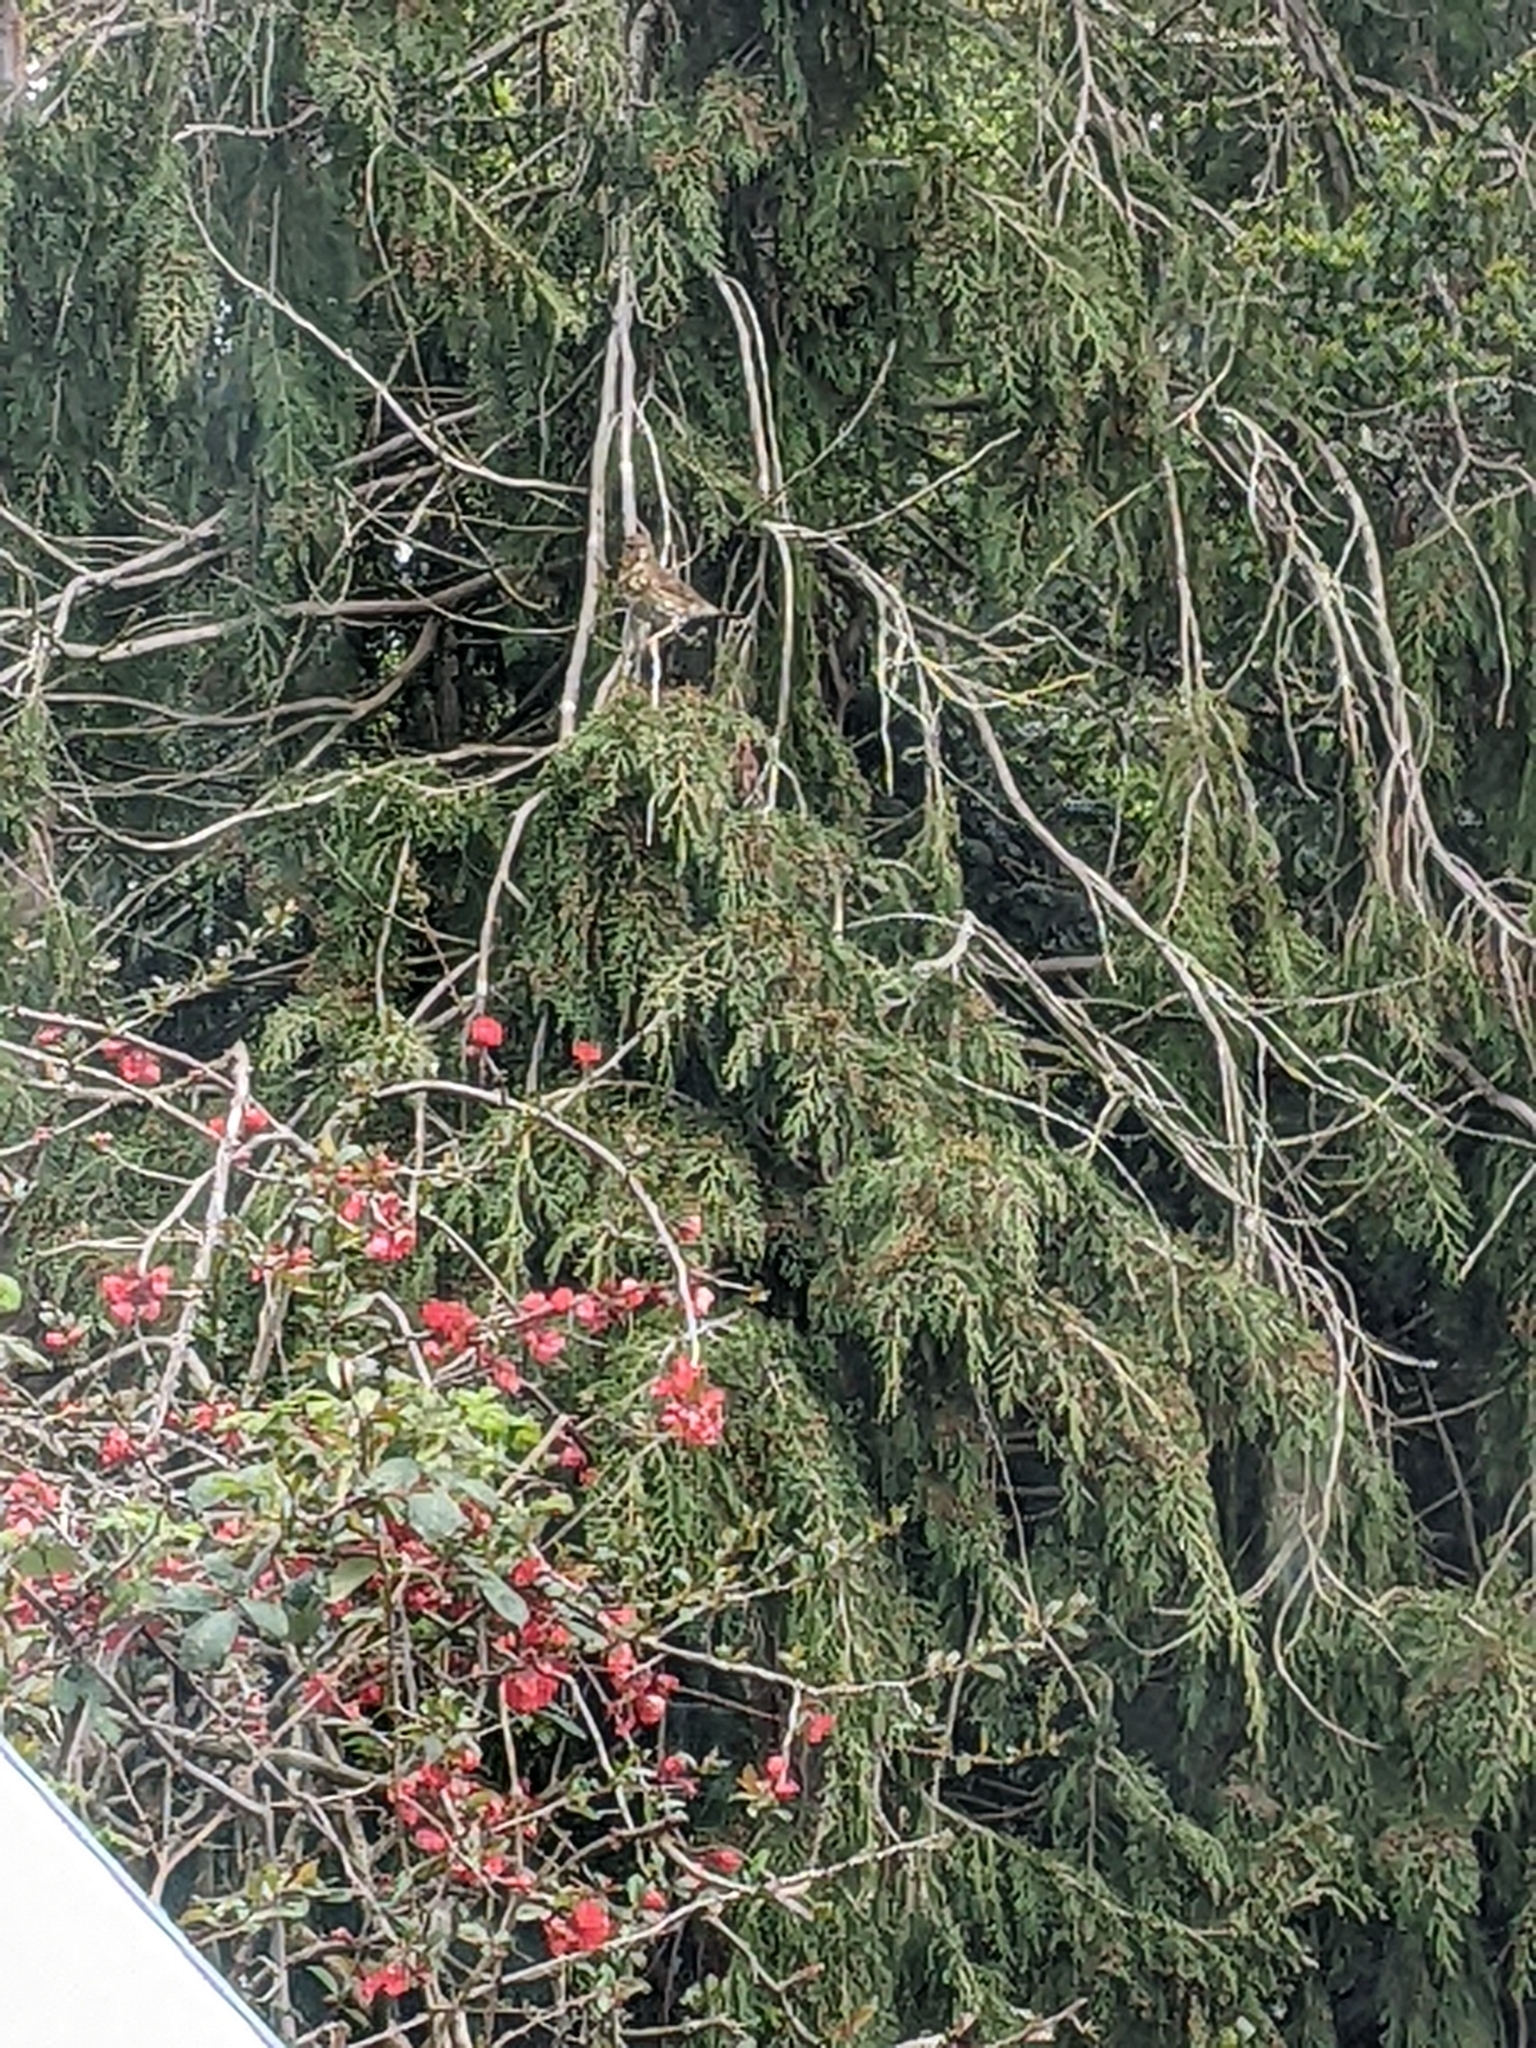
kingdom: Animalia
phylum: Chordata
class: Aves
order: Passeriformes
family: Turdidae
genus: Turdus
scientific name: Turdus philomelos
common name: Song thrush
